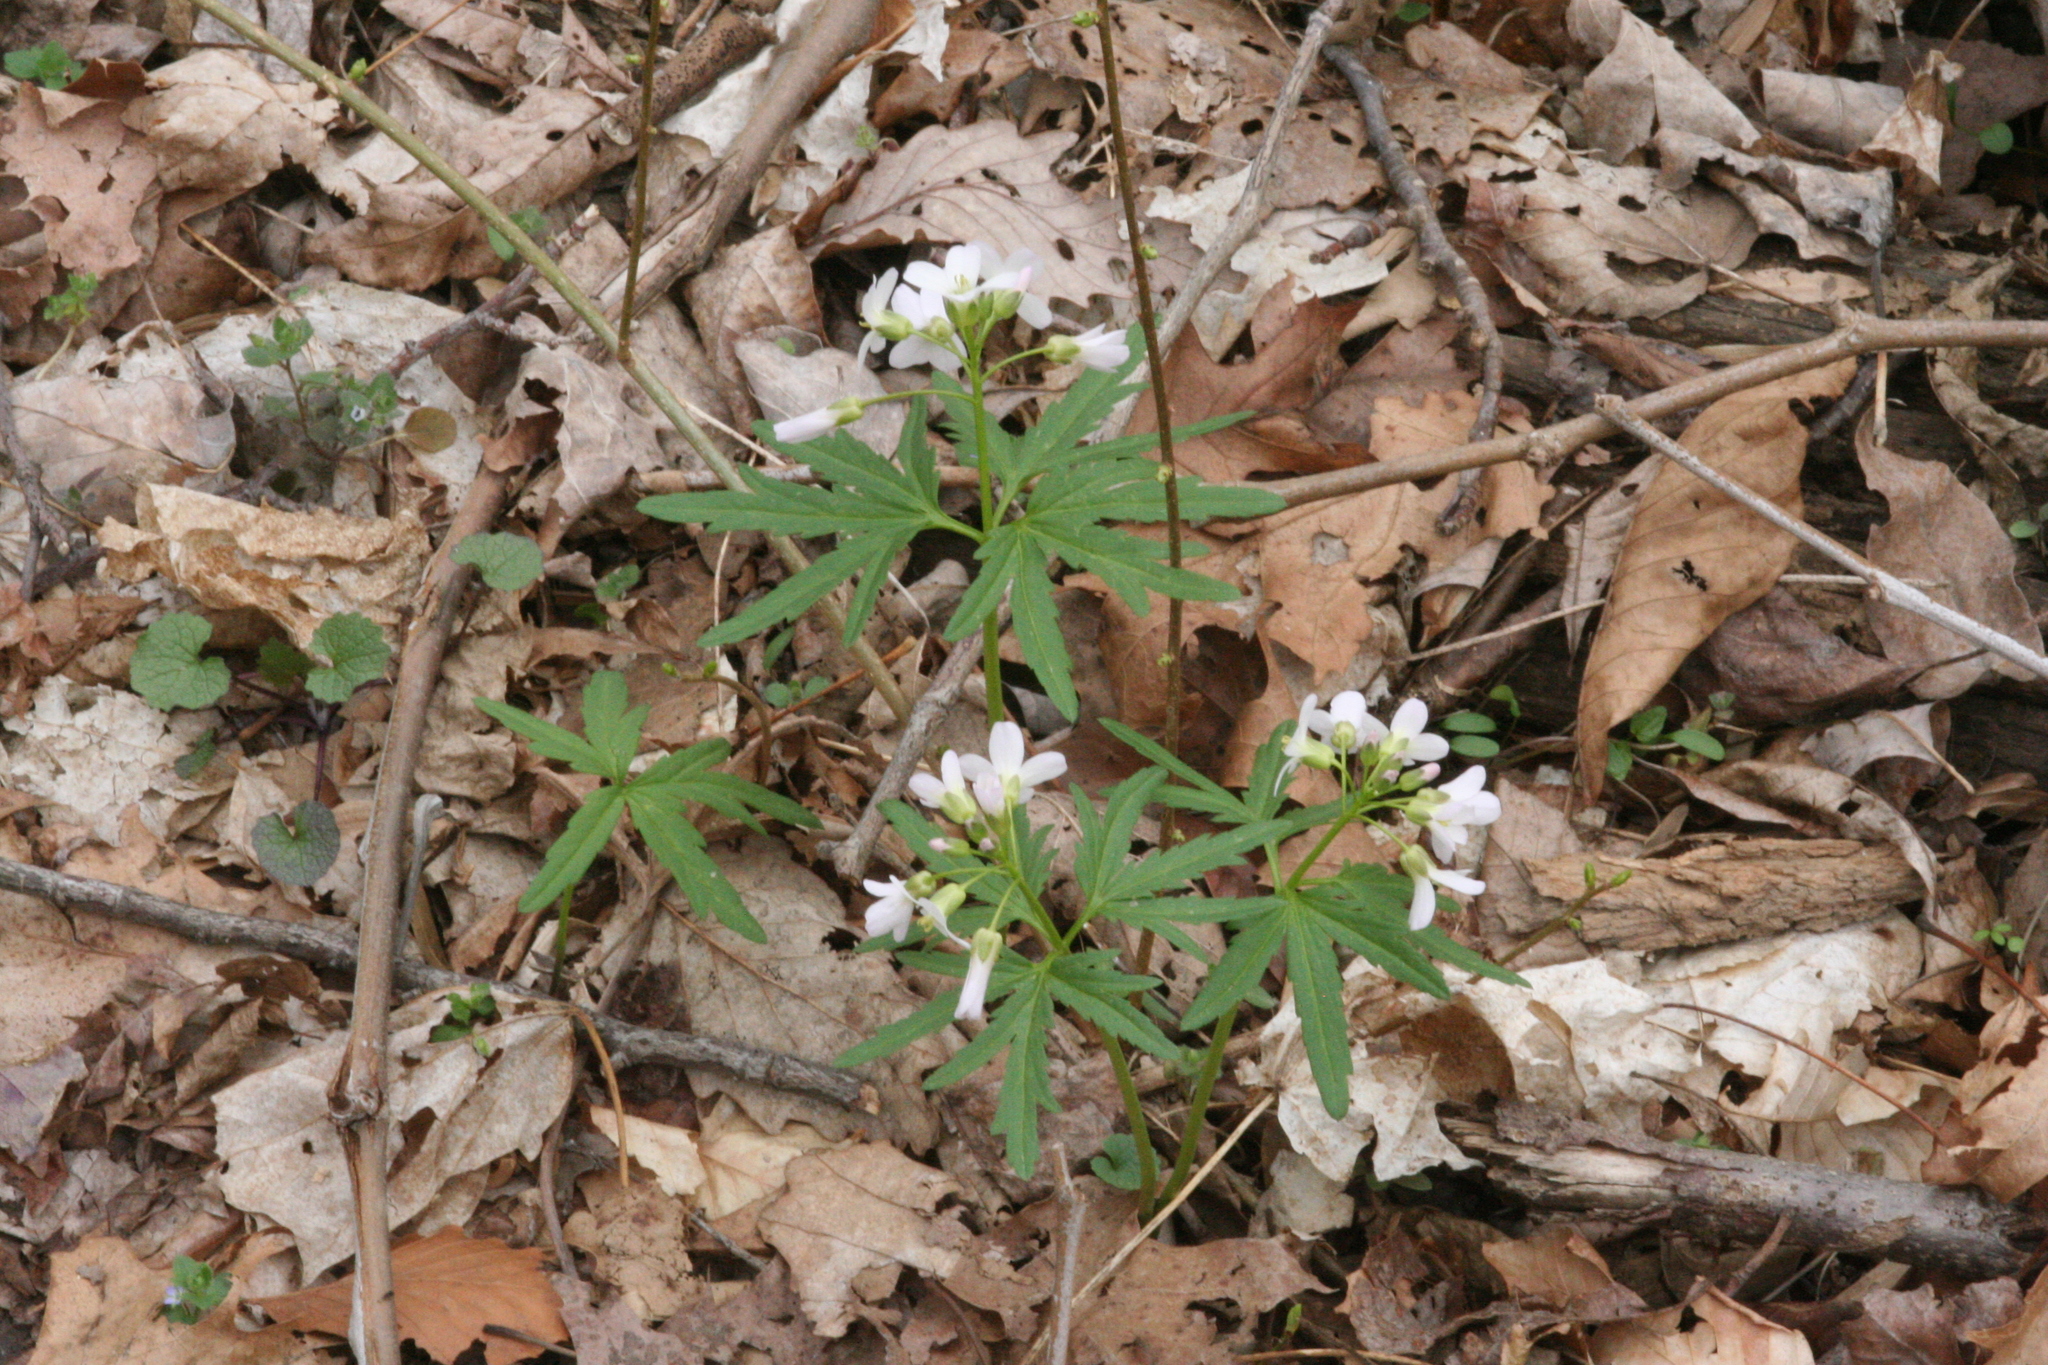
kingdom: Plantae
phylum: Tracheophyta
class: Magnoliopsida
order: Brassicales
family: Brassicaceae
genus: Cardamine
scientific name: Cardamine concatenata
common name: Cut-leaf toothcup
